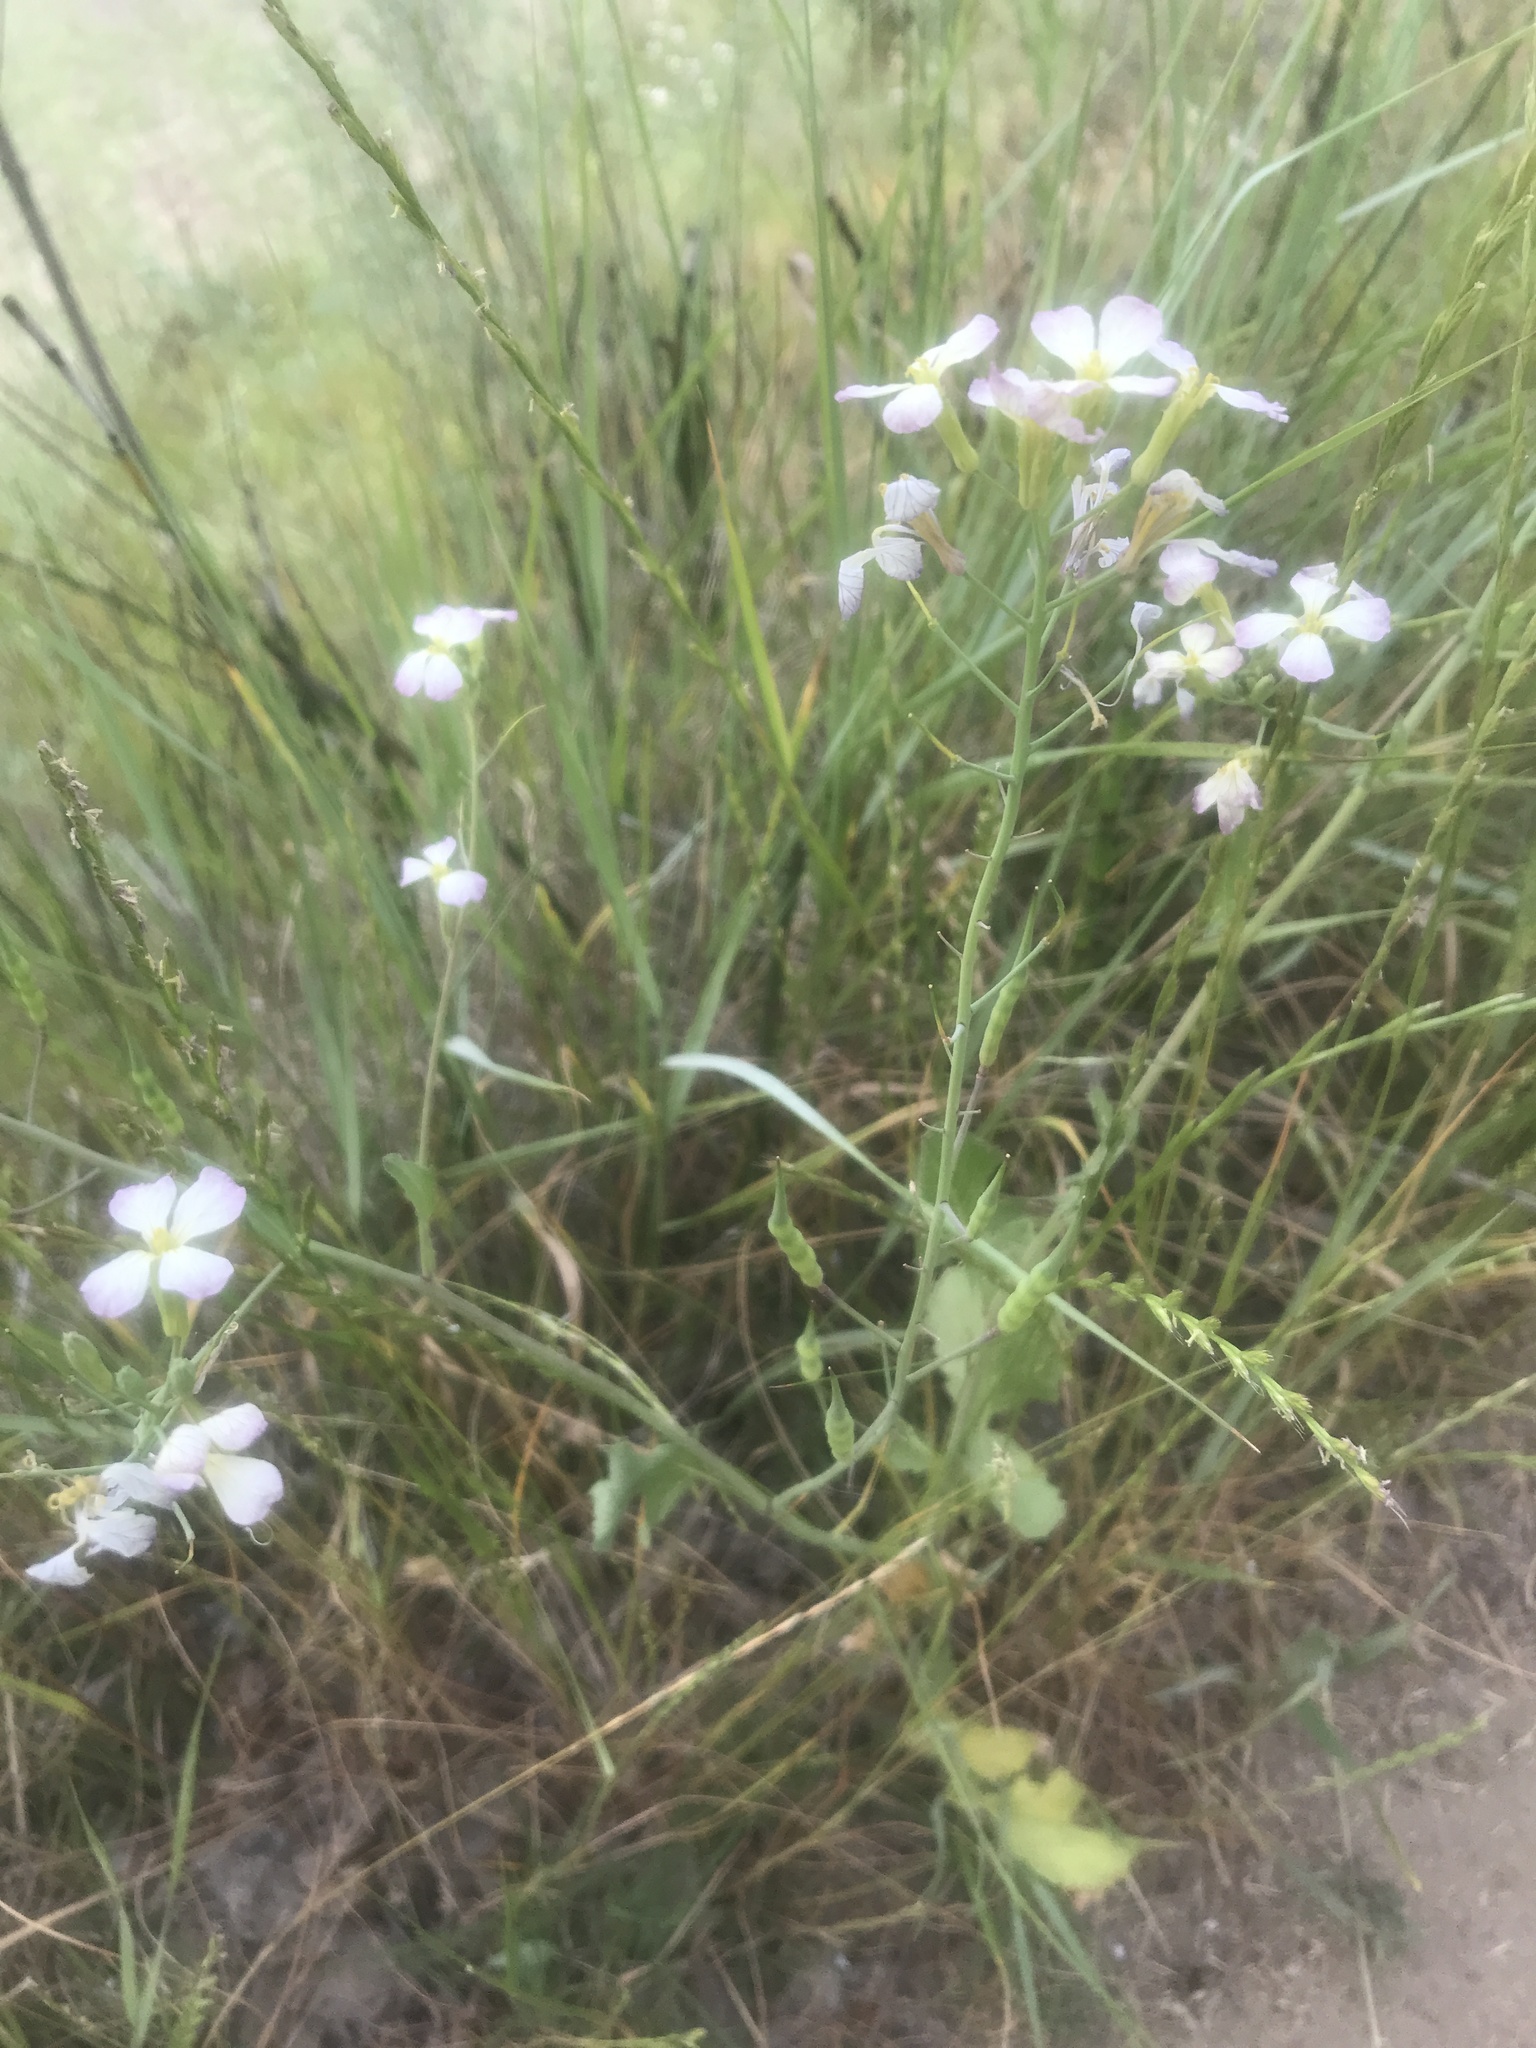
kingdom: Plantae
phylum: Tracheophyta
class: Magnoliopsida
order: Brassicales
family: Brassicaceae
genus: Raphanus
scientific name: Raphanus sativus
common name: Cultivated radish
